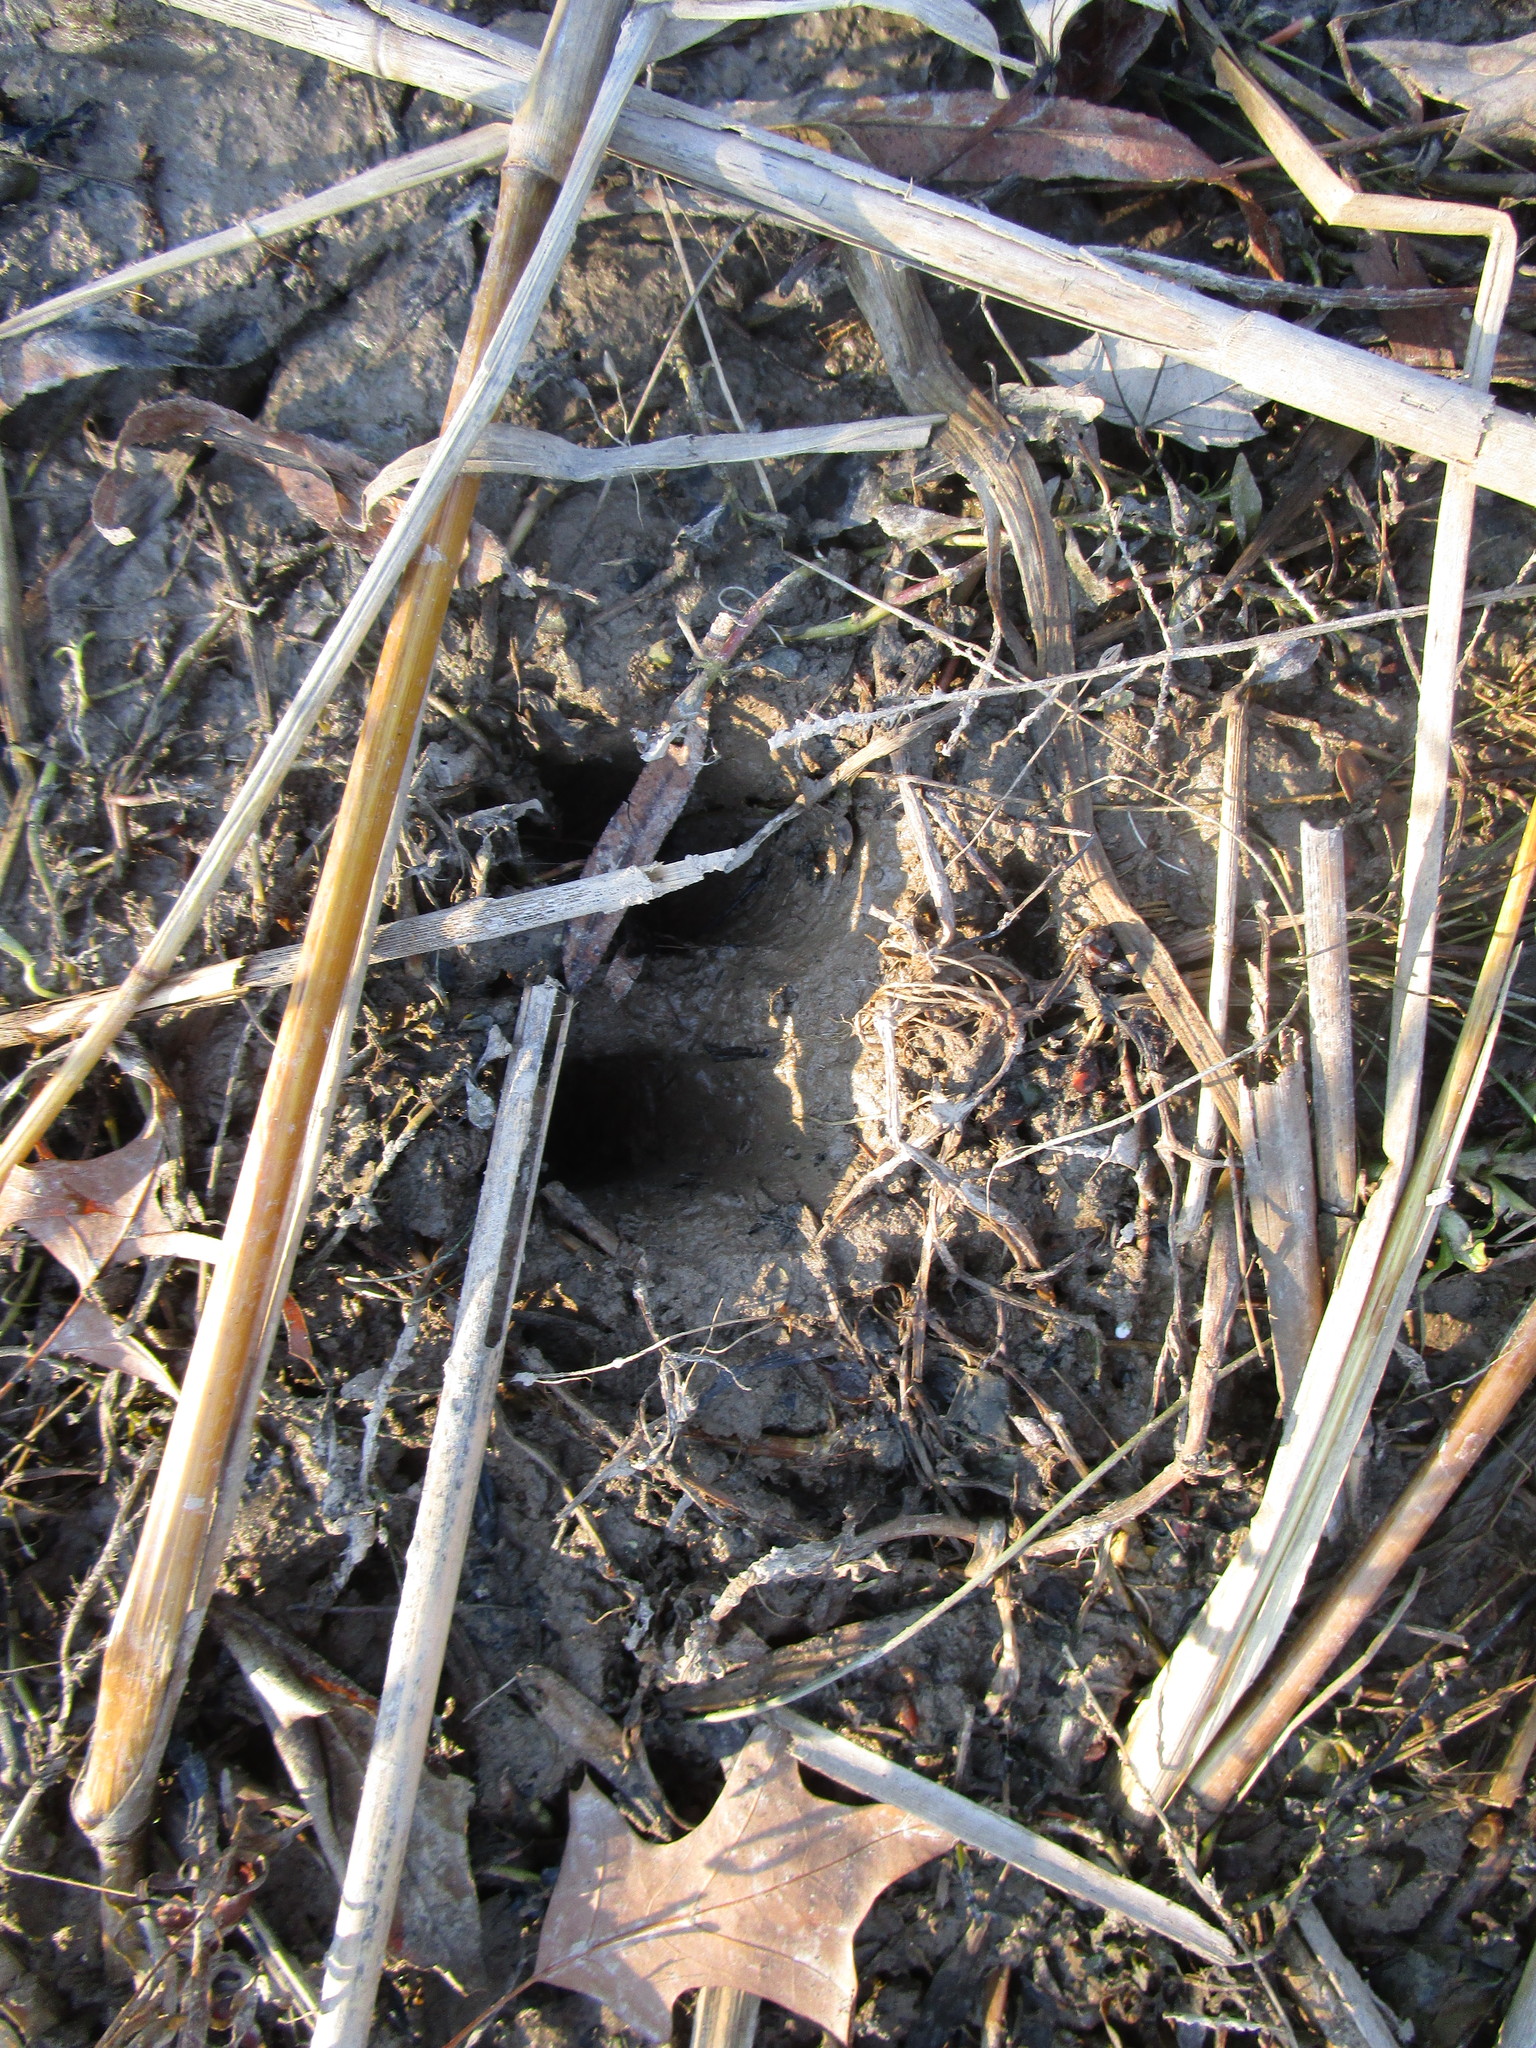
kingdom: Animalia
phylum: Chordata
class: Mammalia
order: Artiodactyla
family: Cervidae
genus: Odocoileus
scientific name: Odocoileus virginianus
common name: White-tailed deer
